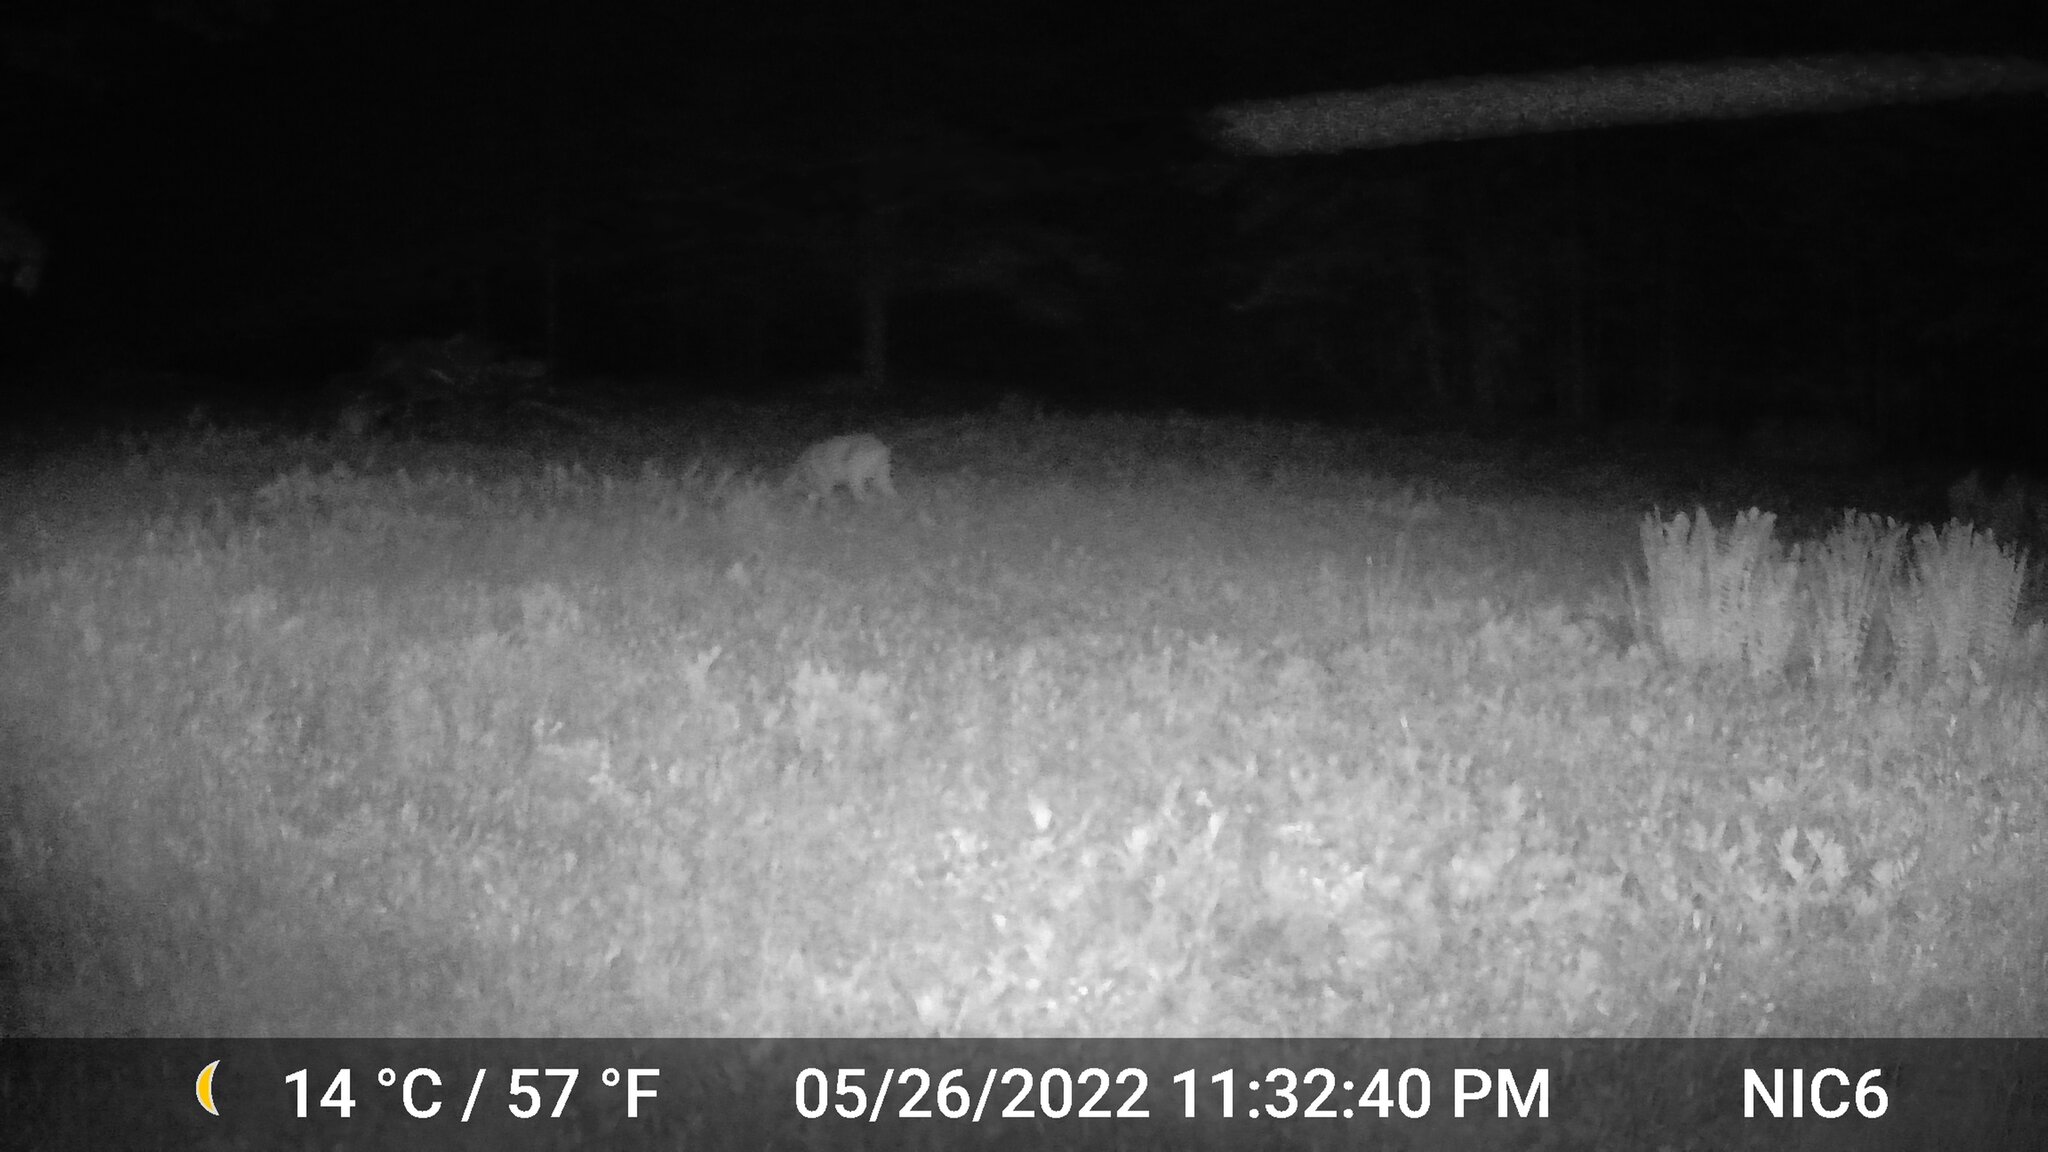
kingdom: Animalia
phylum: Chordata
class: Mammalia
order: Artiodactyla
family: Cervidae
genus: Odocoileus
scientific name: Odocoileus virginianus
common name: White-tailed deer
